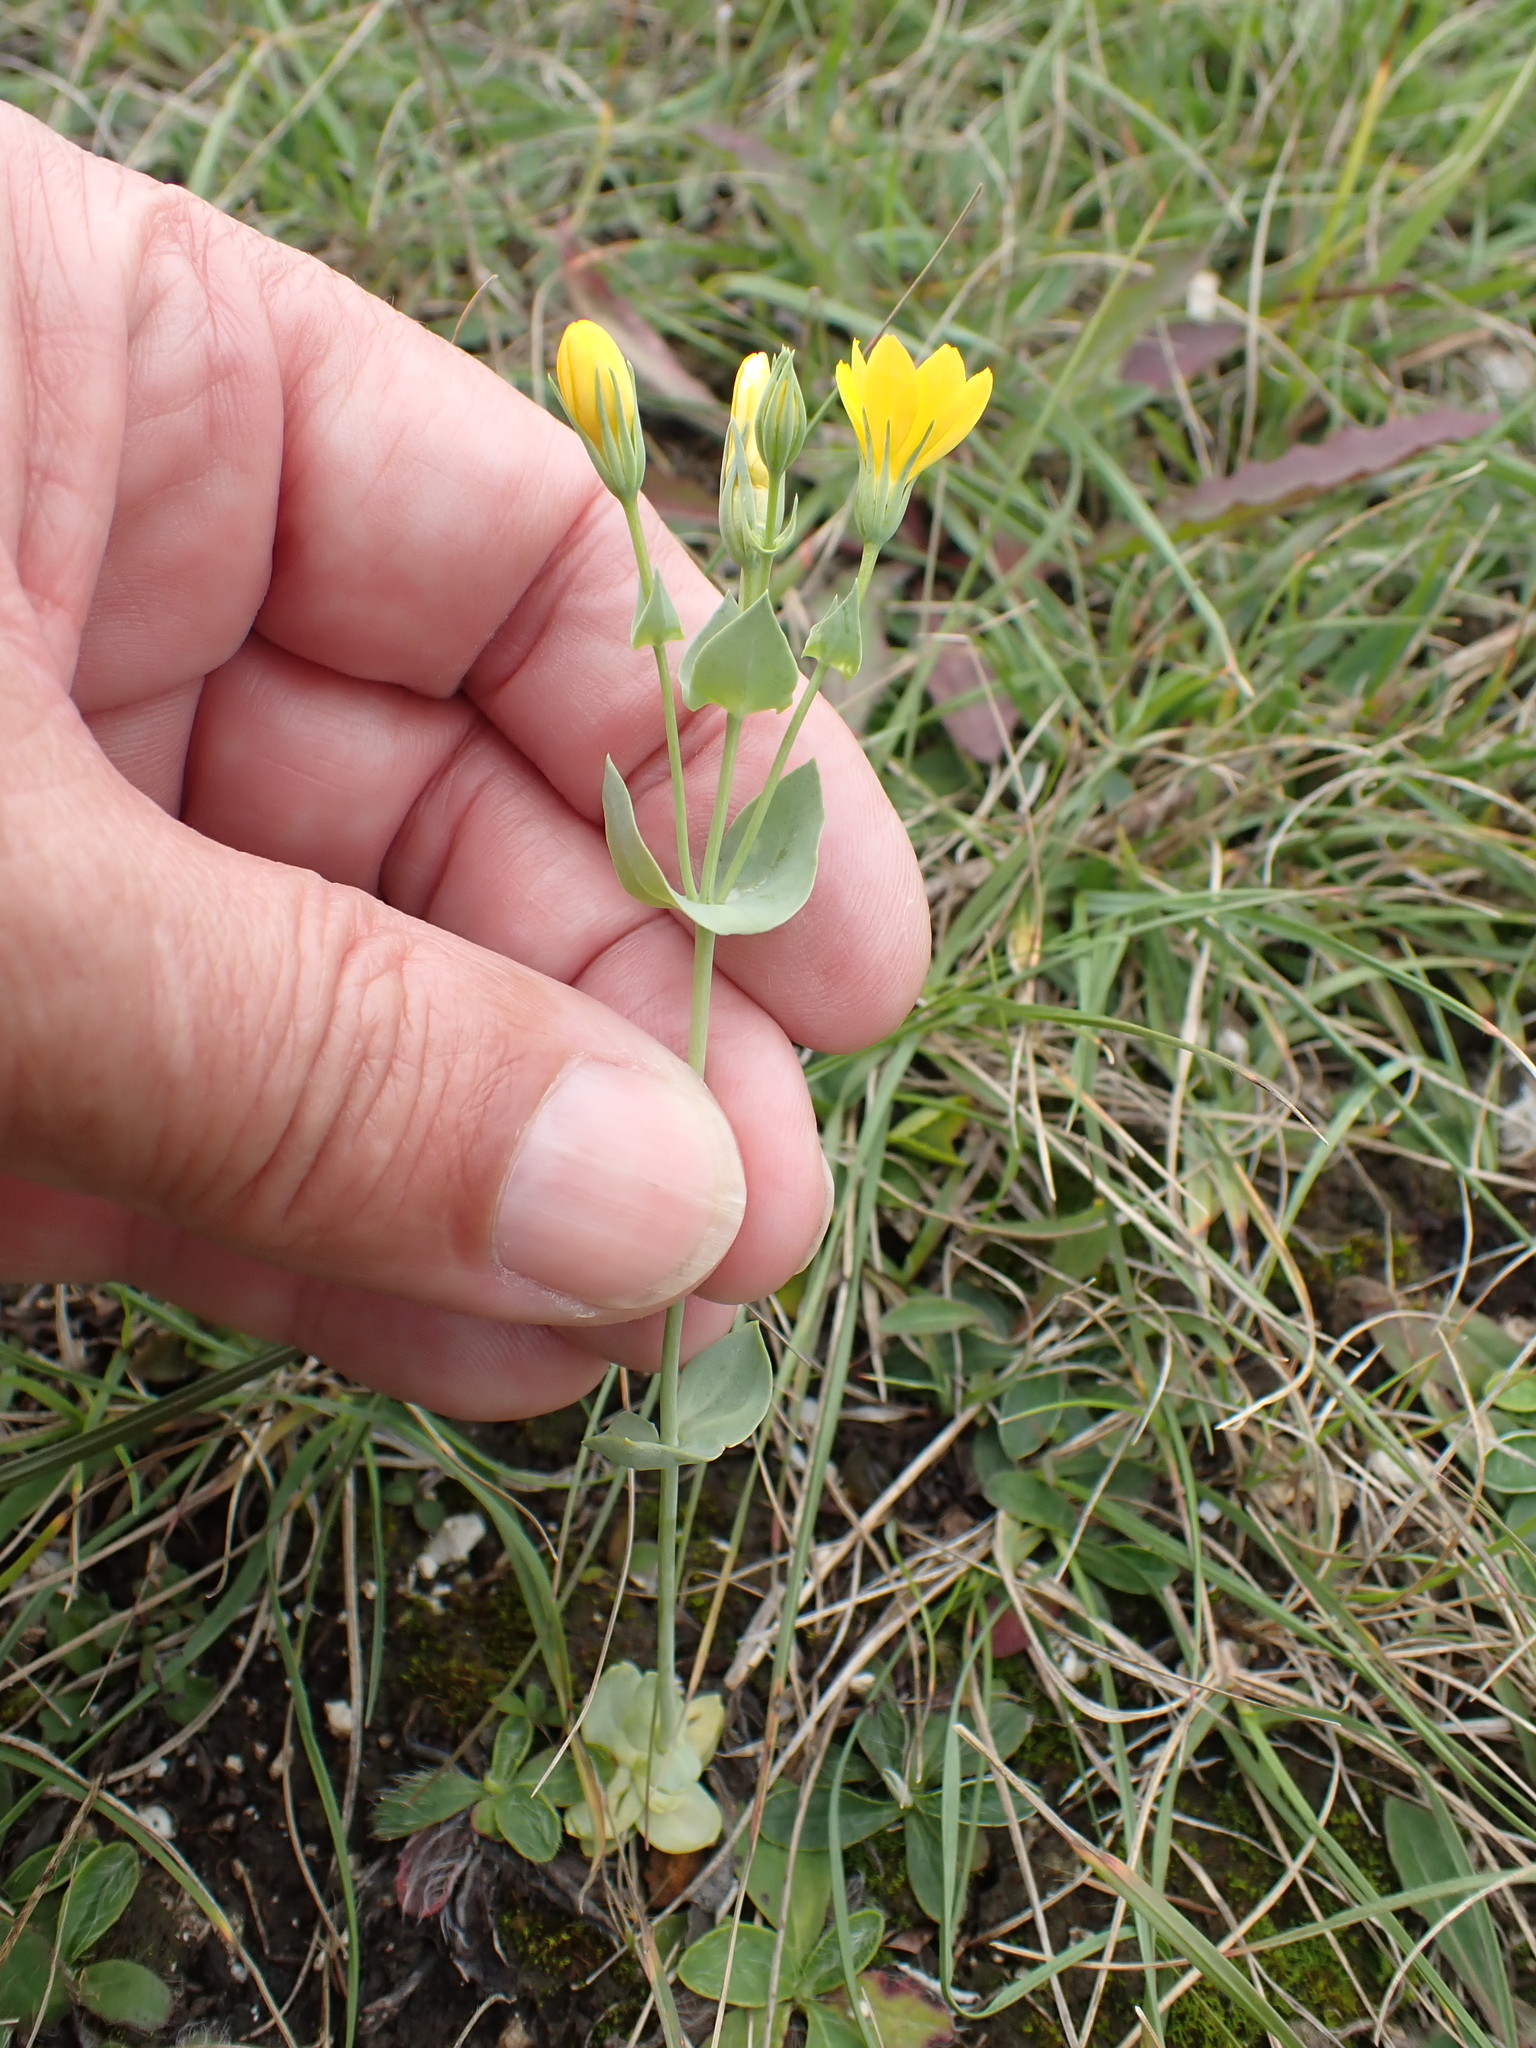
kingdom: Plantae
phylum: Tracheophyta
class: Magnoliopsida
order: Gentianales
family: Gentianaceae
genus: Blackstonia
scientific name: Blackstonia perfoliata
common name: Yellow-wort
